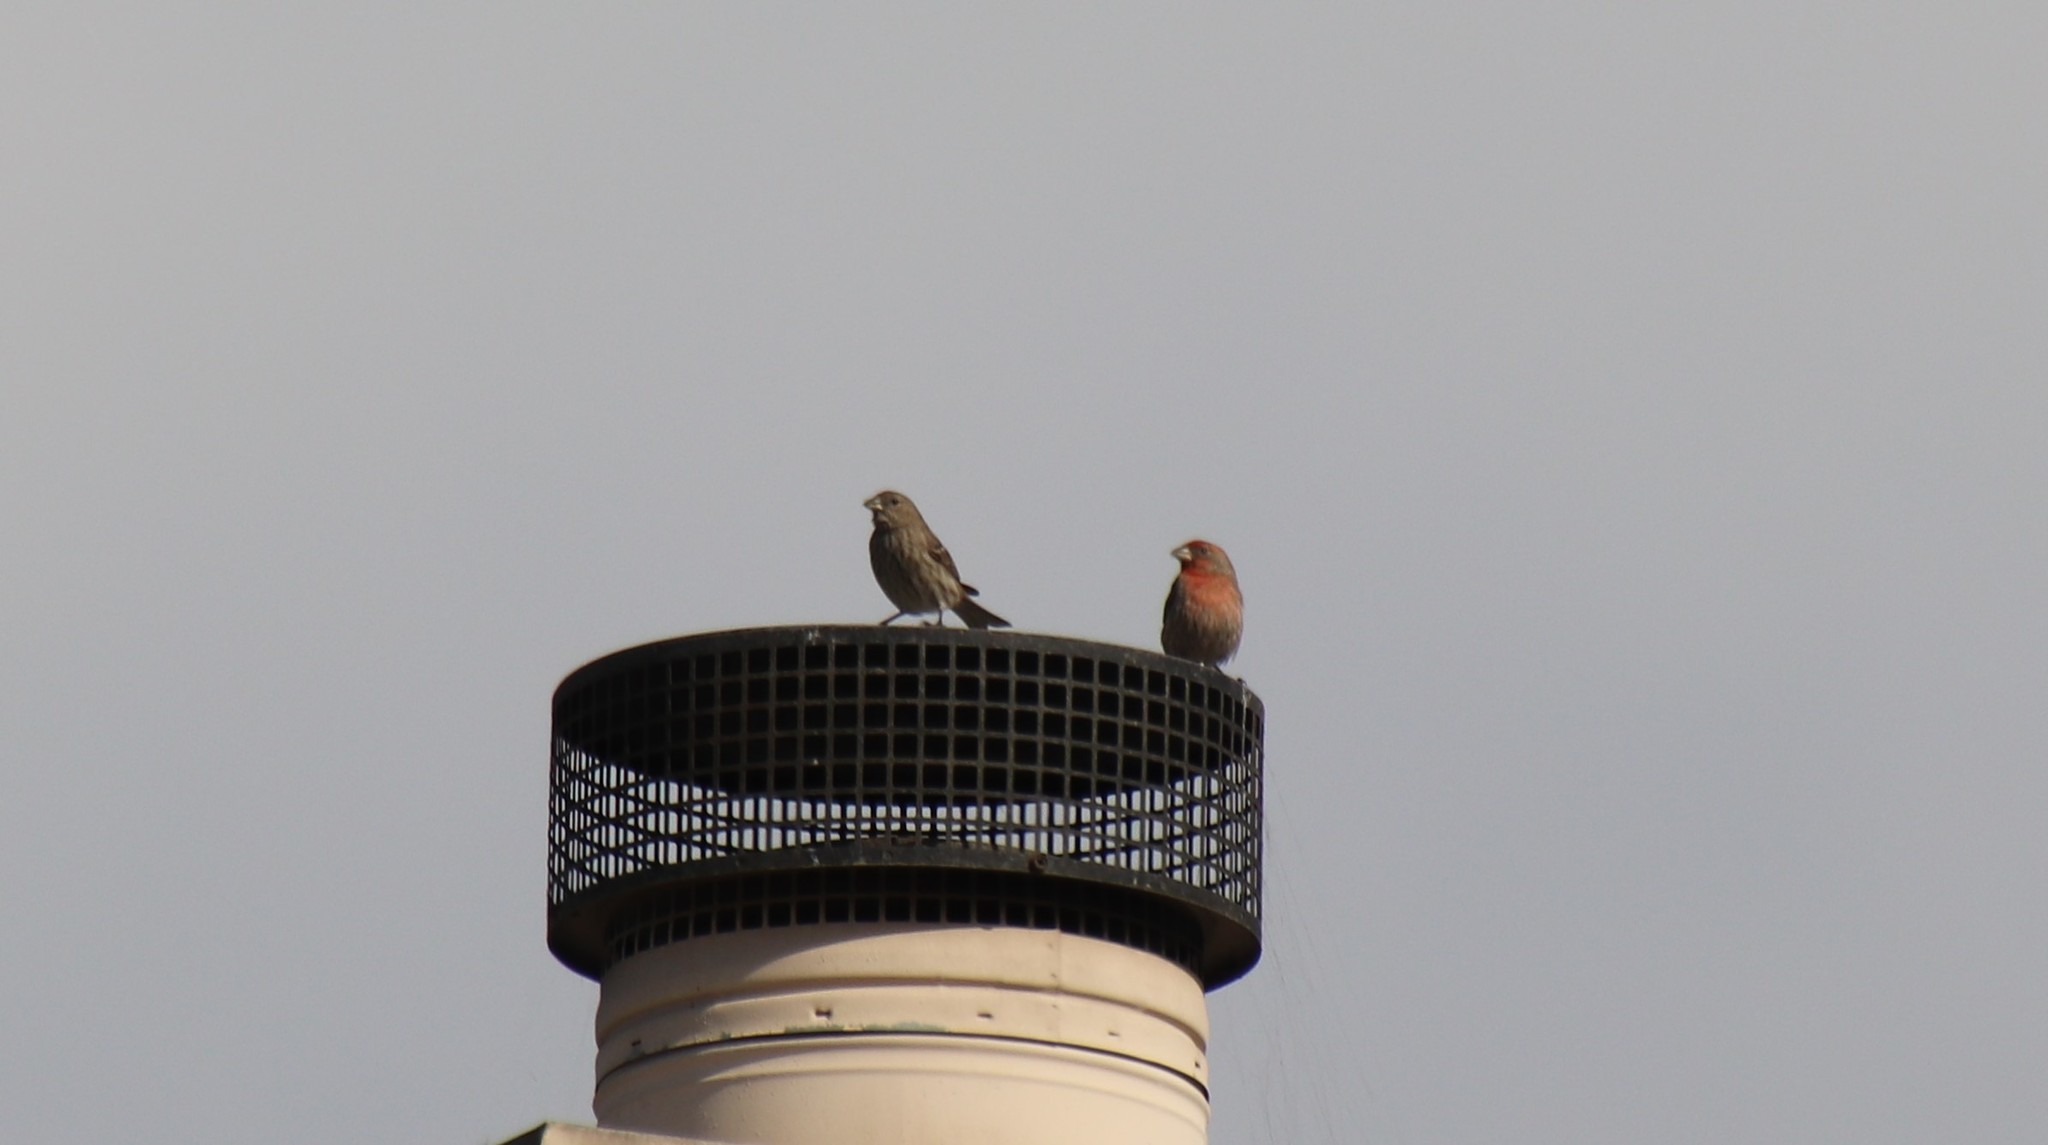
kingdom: Animalia
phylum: Chordata
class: Aves
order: Passeriformes
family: Fringillidae
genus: Haemorhous
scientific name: Haemorhous mexicanus
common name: House finch
